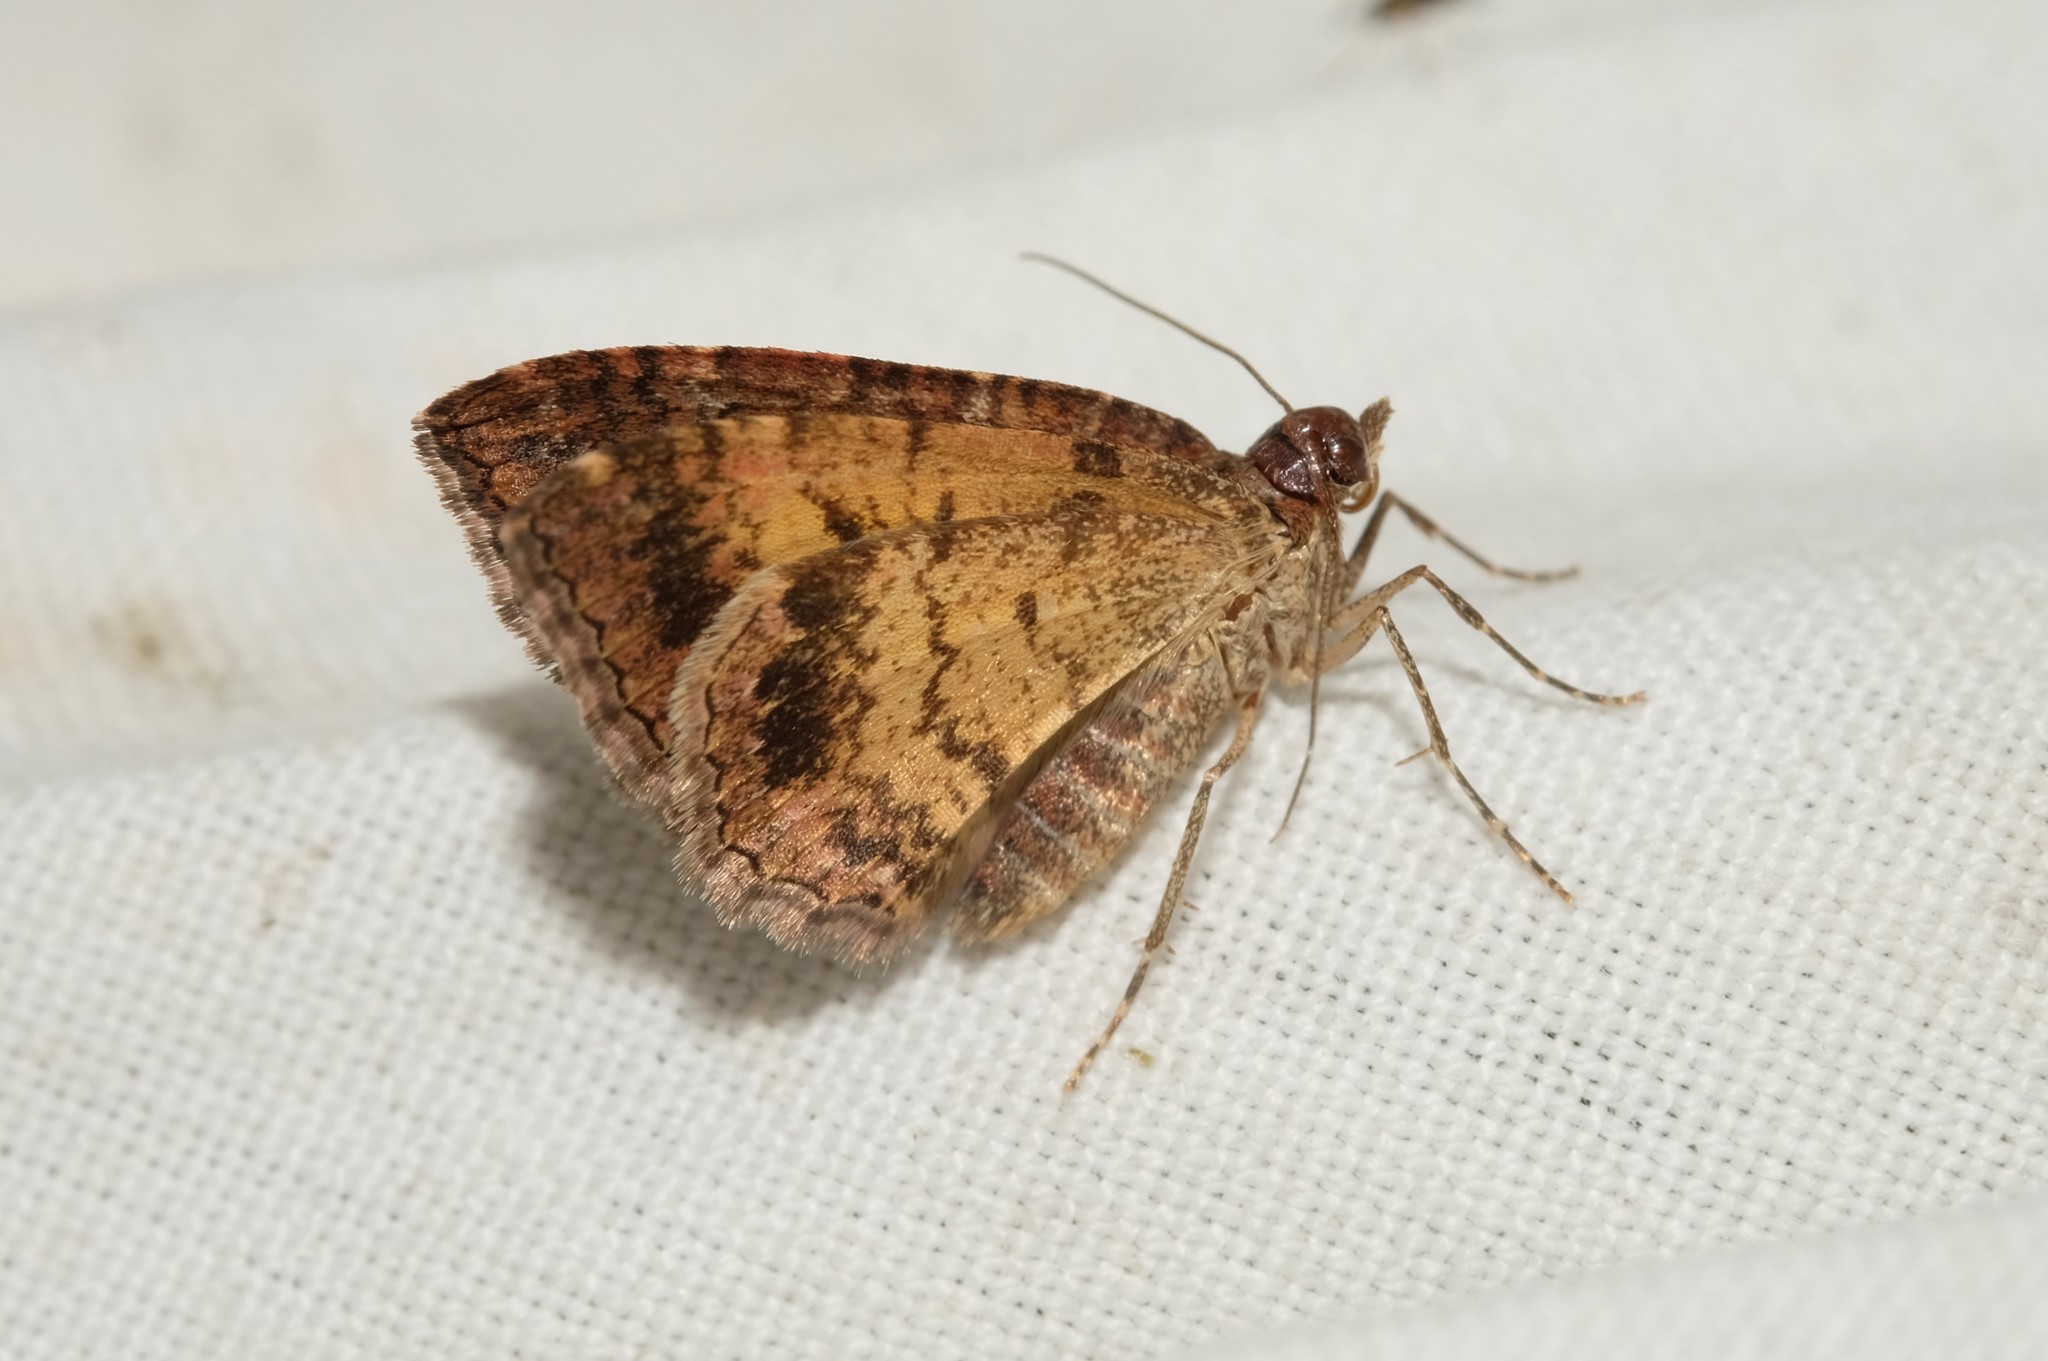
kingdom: Animalia
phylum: Arthropoda
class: Insecta
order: Lepidoptera
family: Geometridae
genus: Chrysolarentia
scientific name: Chrysolarentia bichromata
